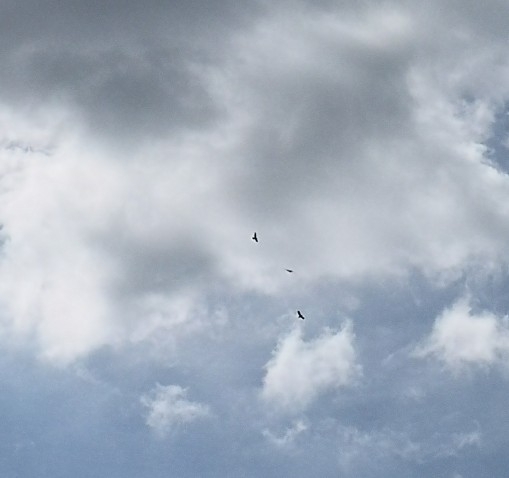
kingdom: Animalia
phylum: Chordata
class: Aves
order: Passeriformes
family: Corvidae
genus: Corvus
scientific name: Corvus corax
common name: Common raven
